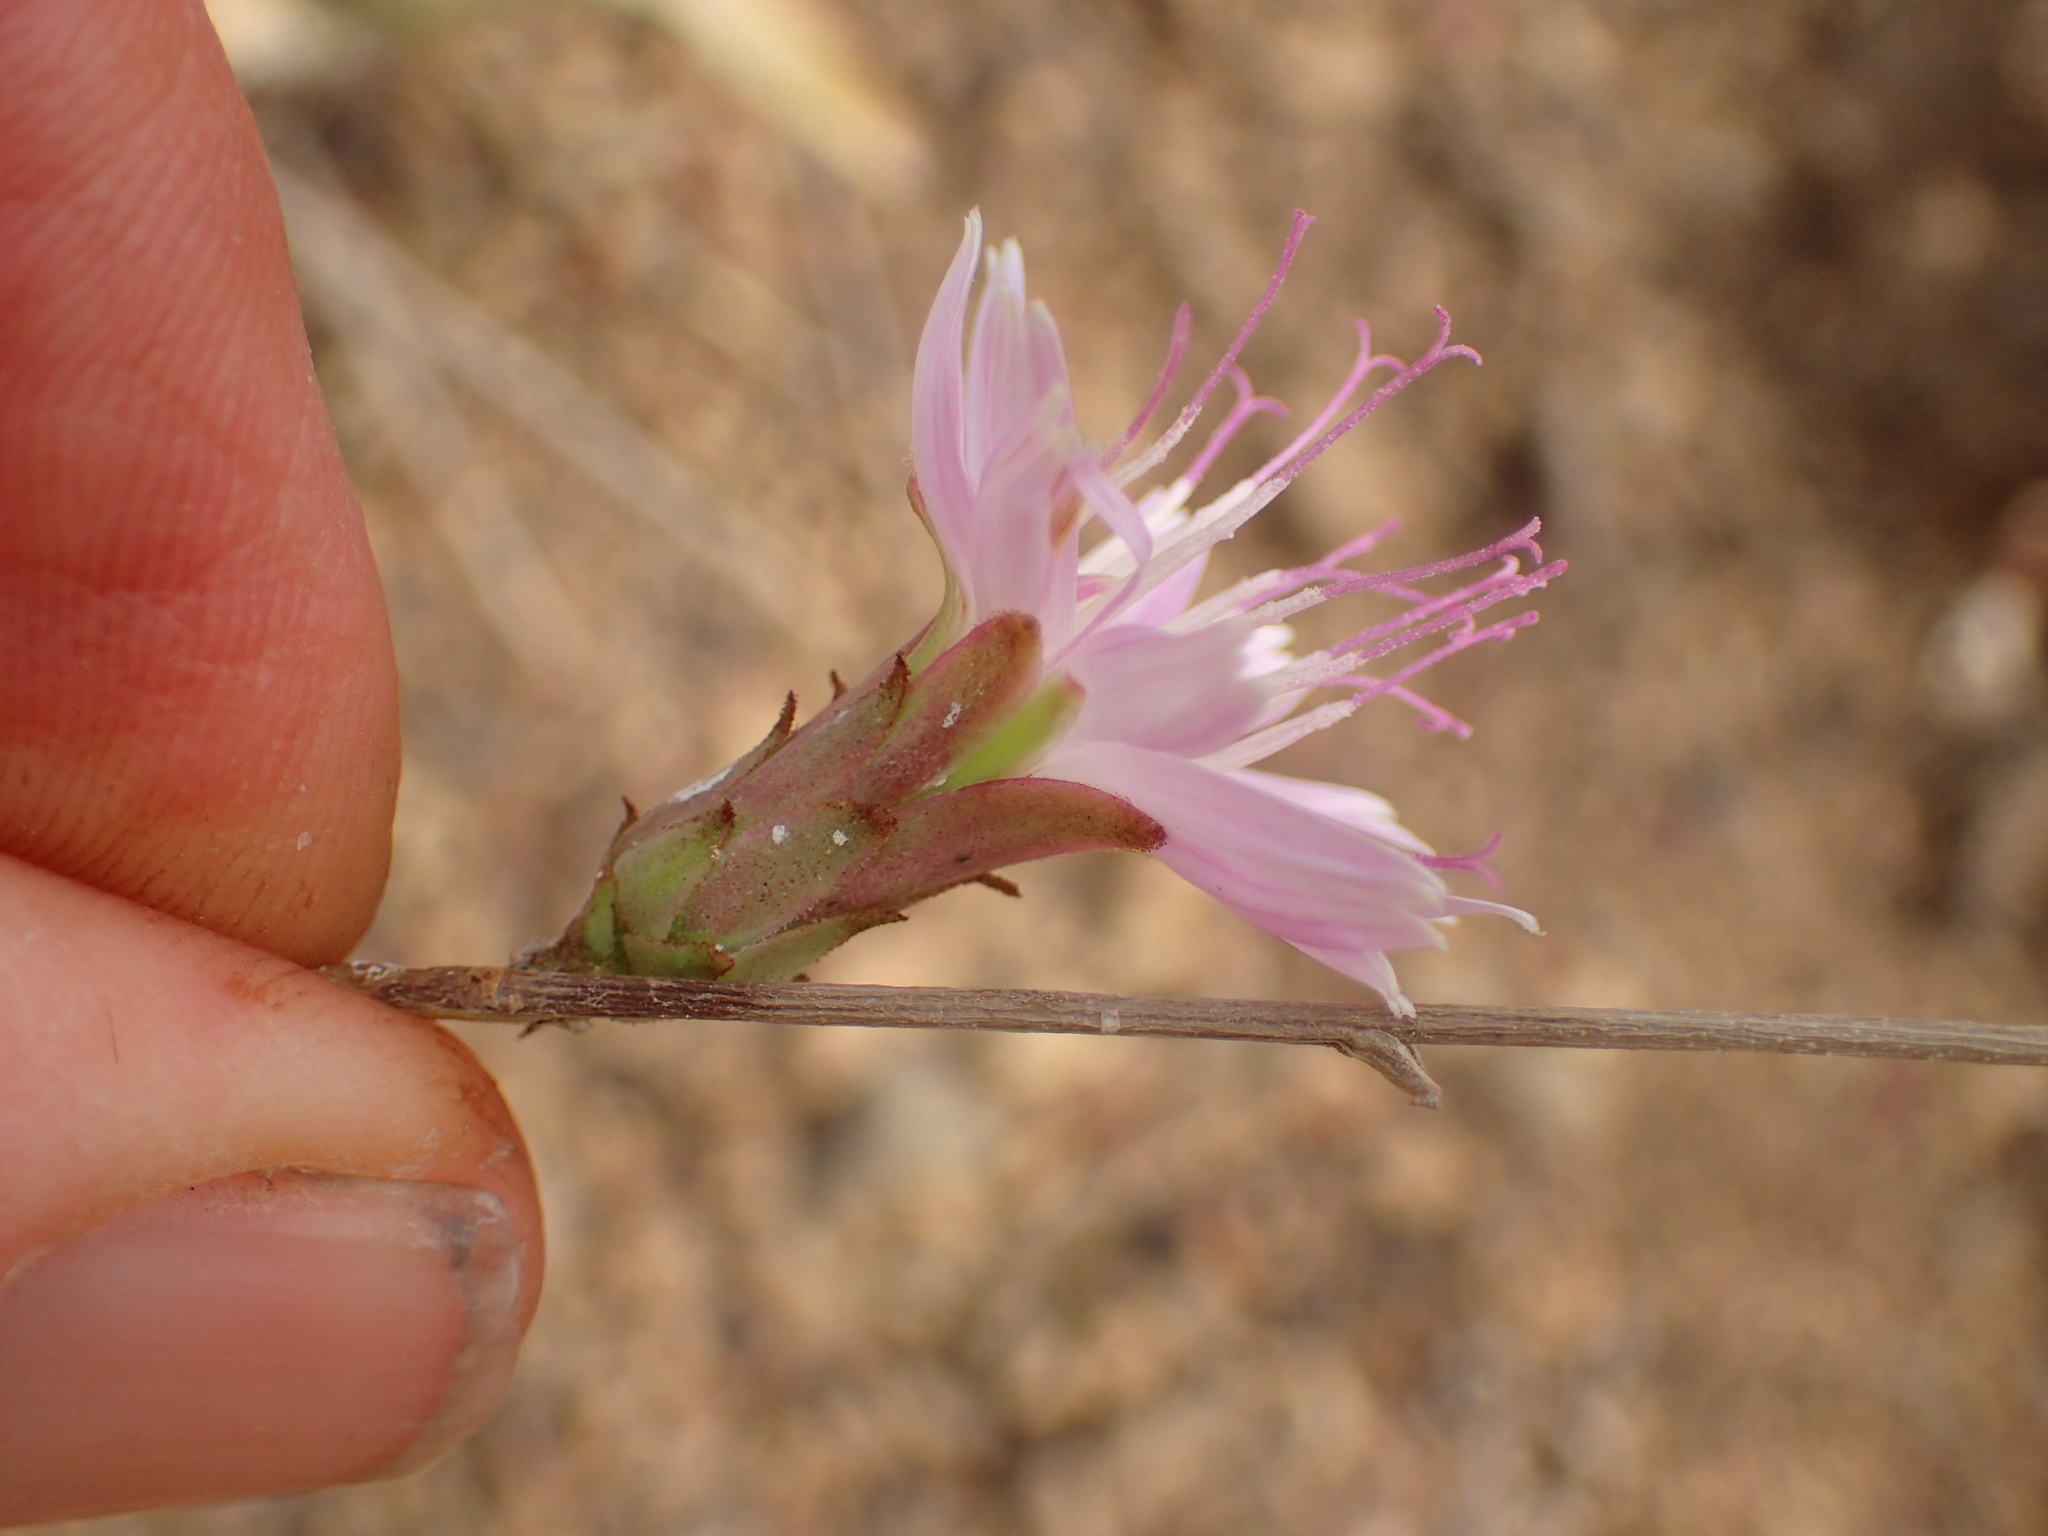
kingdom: Plantae
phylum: Tracheophyta
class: Magnoliopsida
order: Asterales
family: Asteraceae
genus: Stephanomeria
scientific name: Stephanomeria cichoriacea
